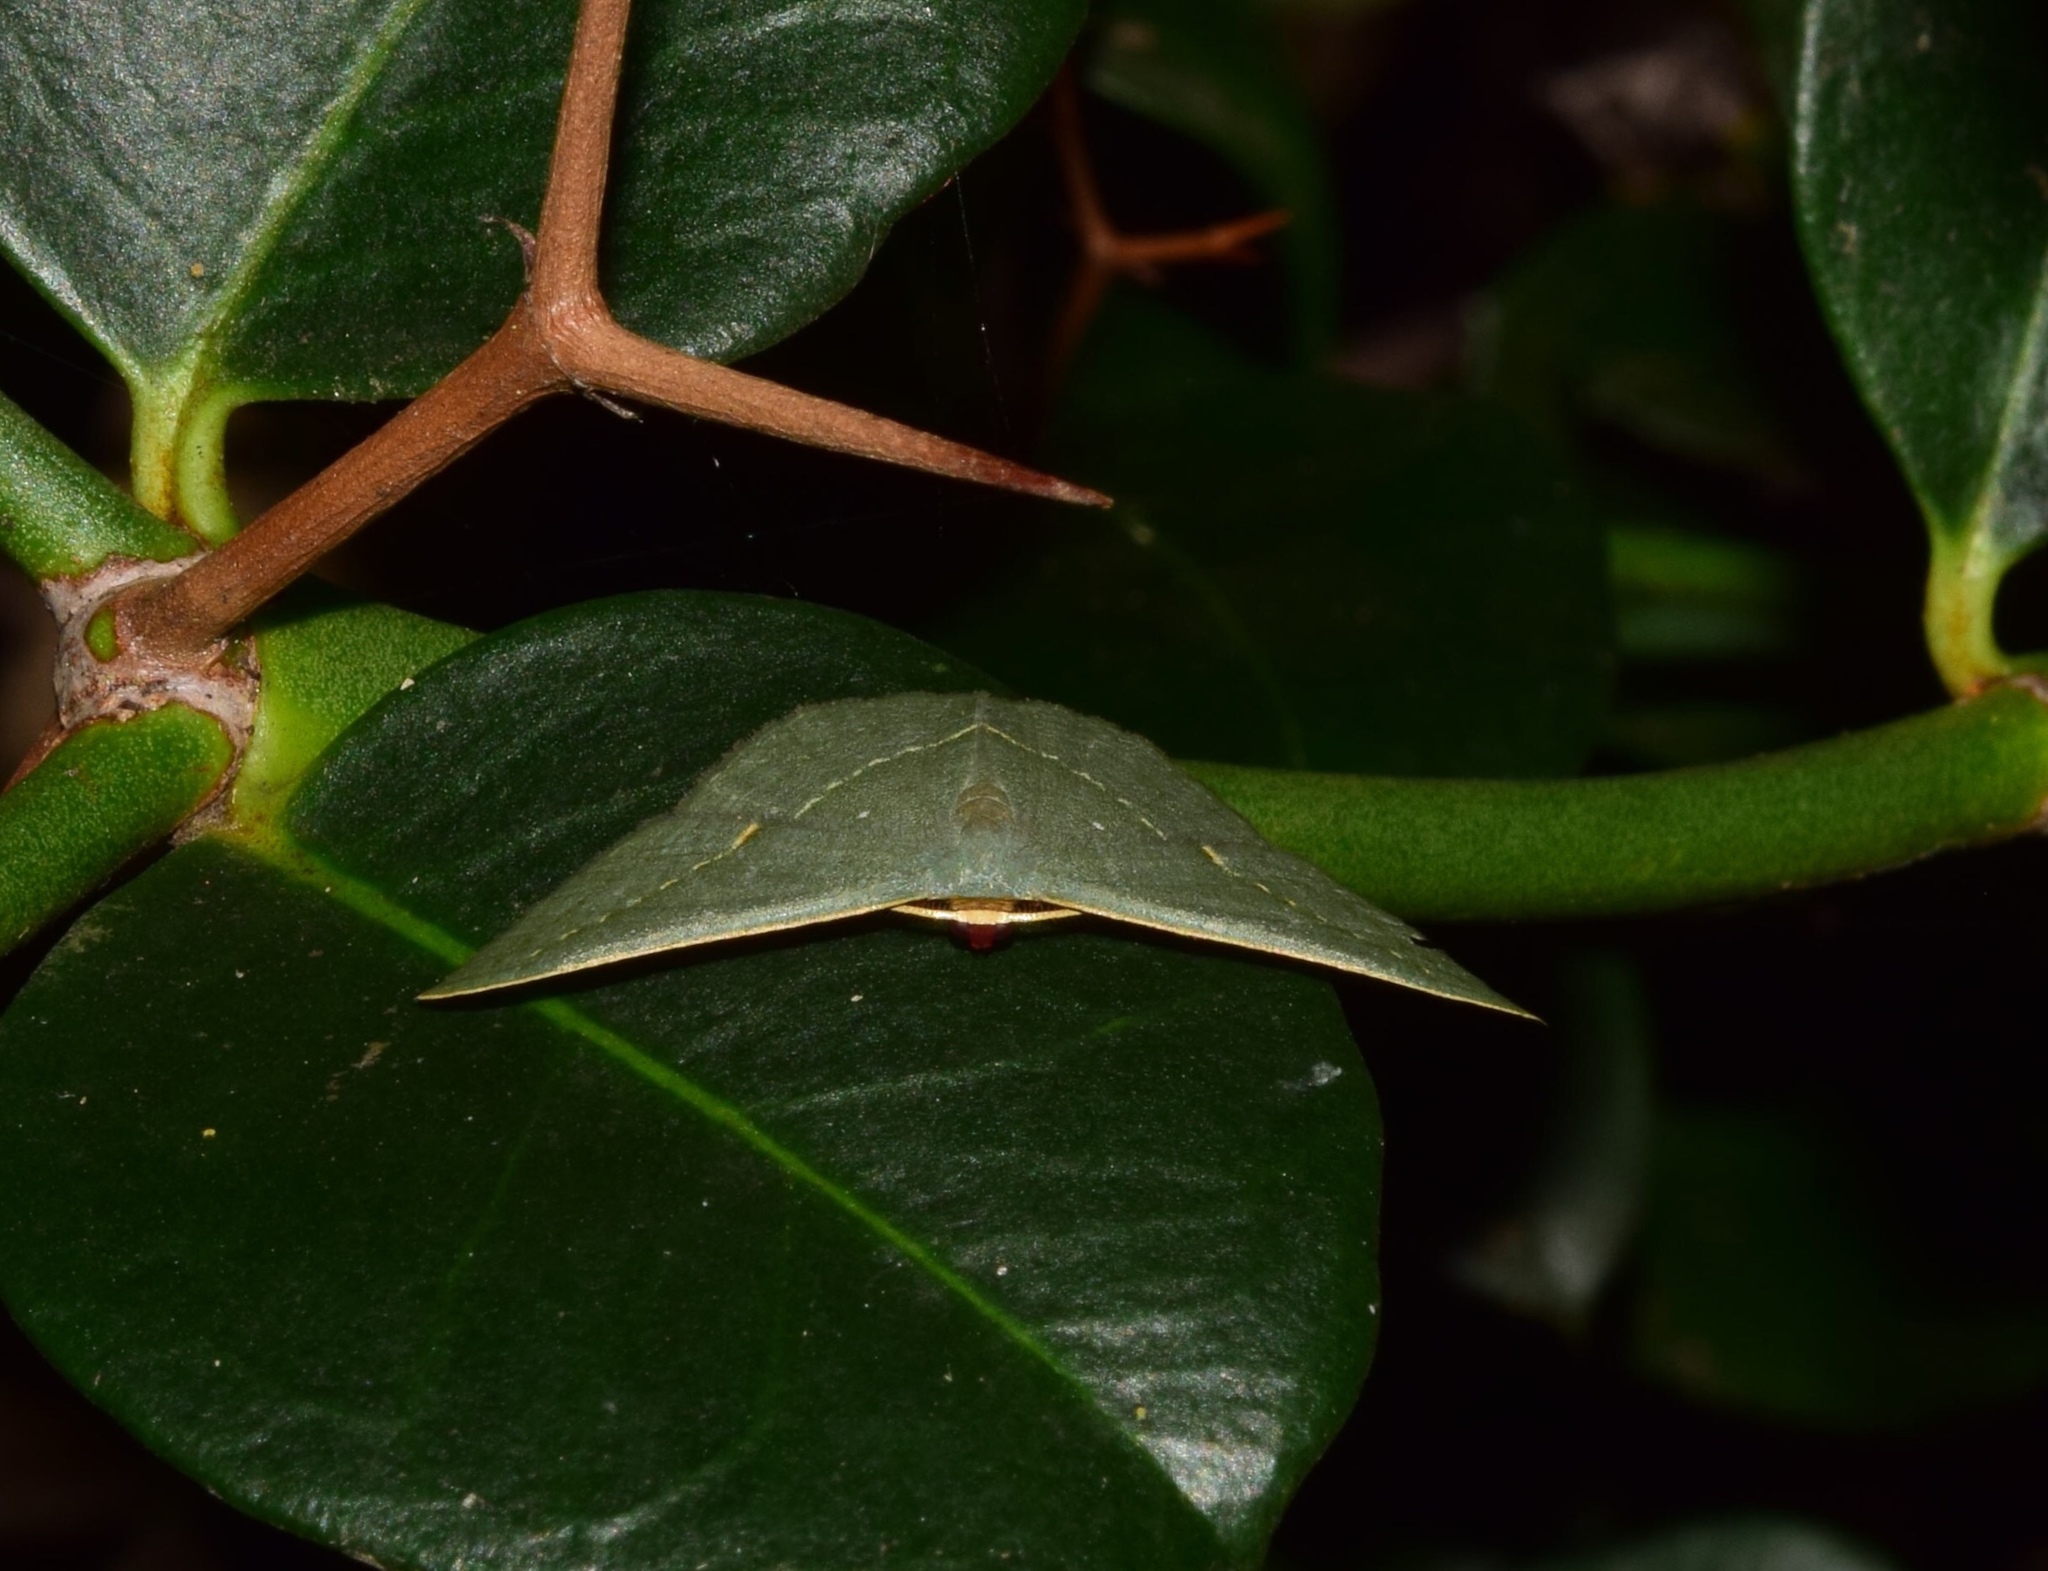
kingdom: Animalia
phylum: Arthropoda
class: Insecta
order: Lepidoptera
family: Geometridae
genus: Traminda
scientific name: Traminda obversata
